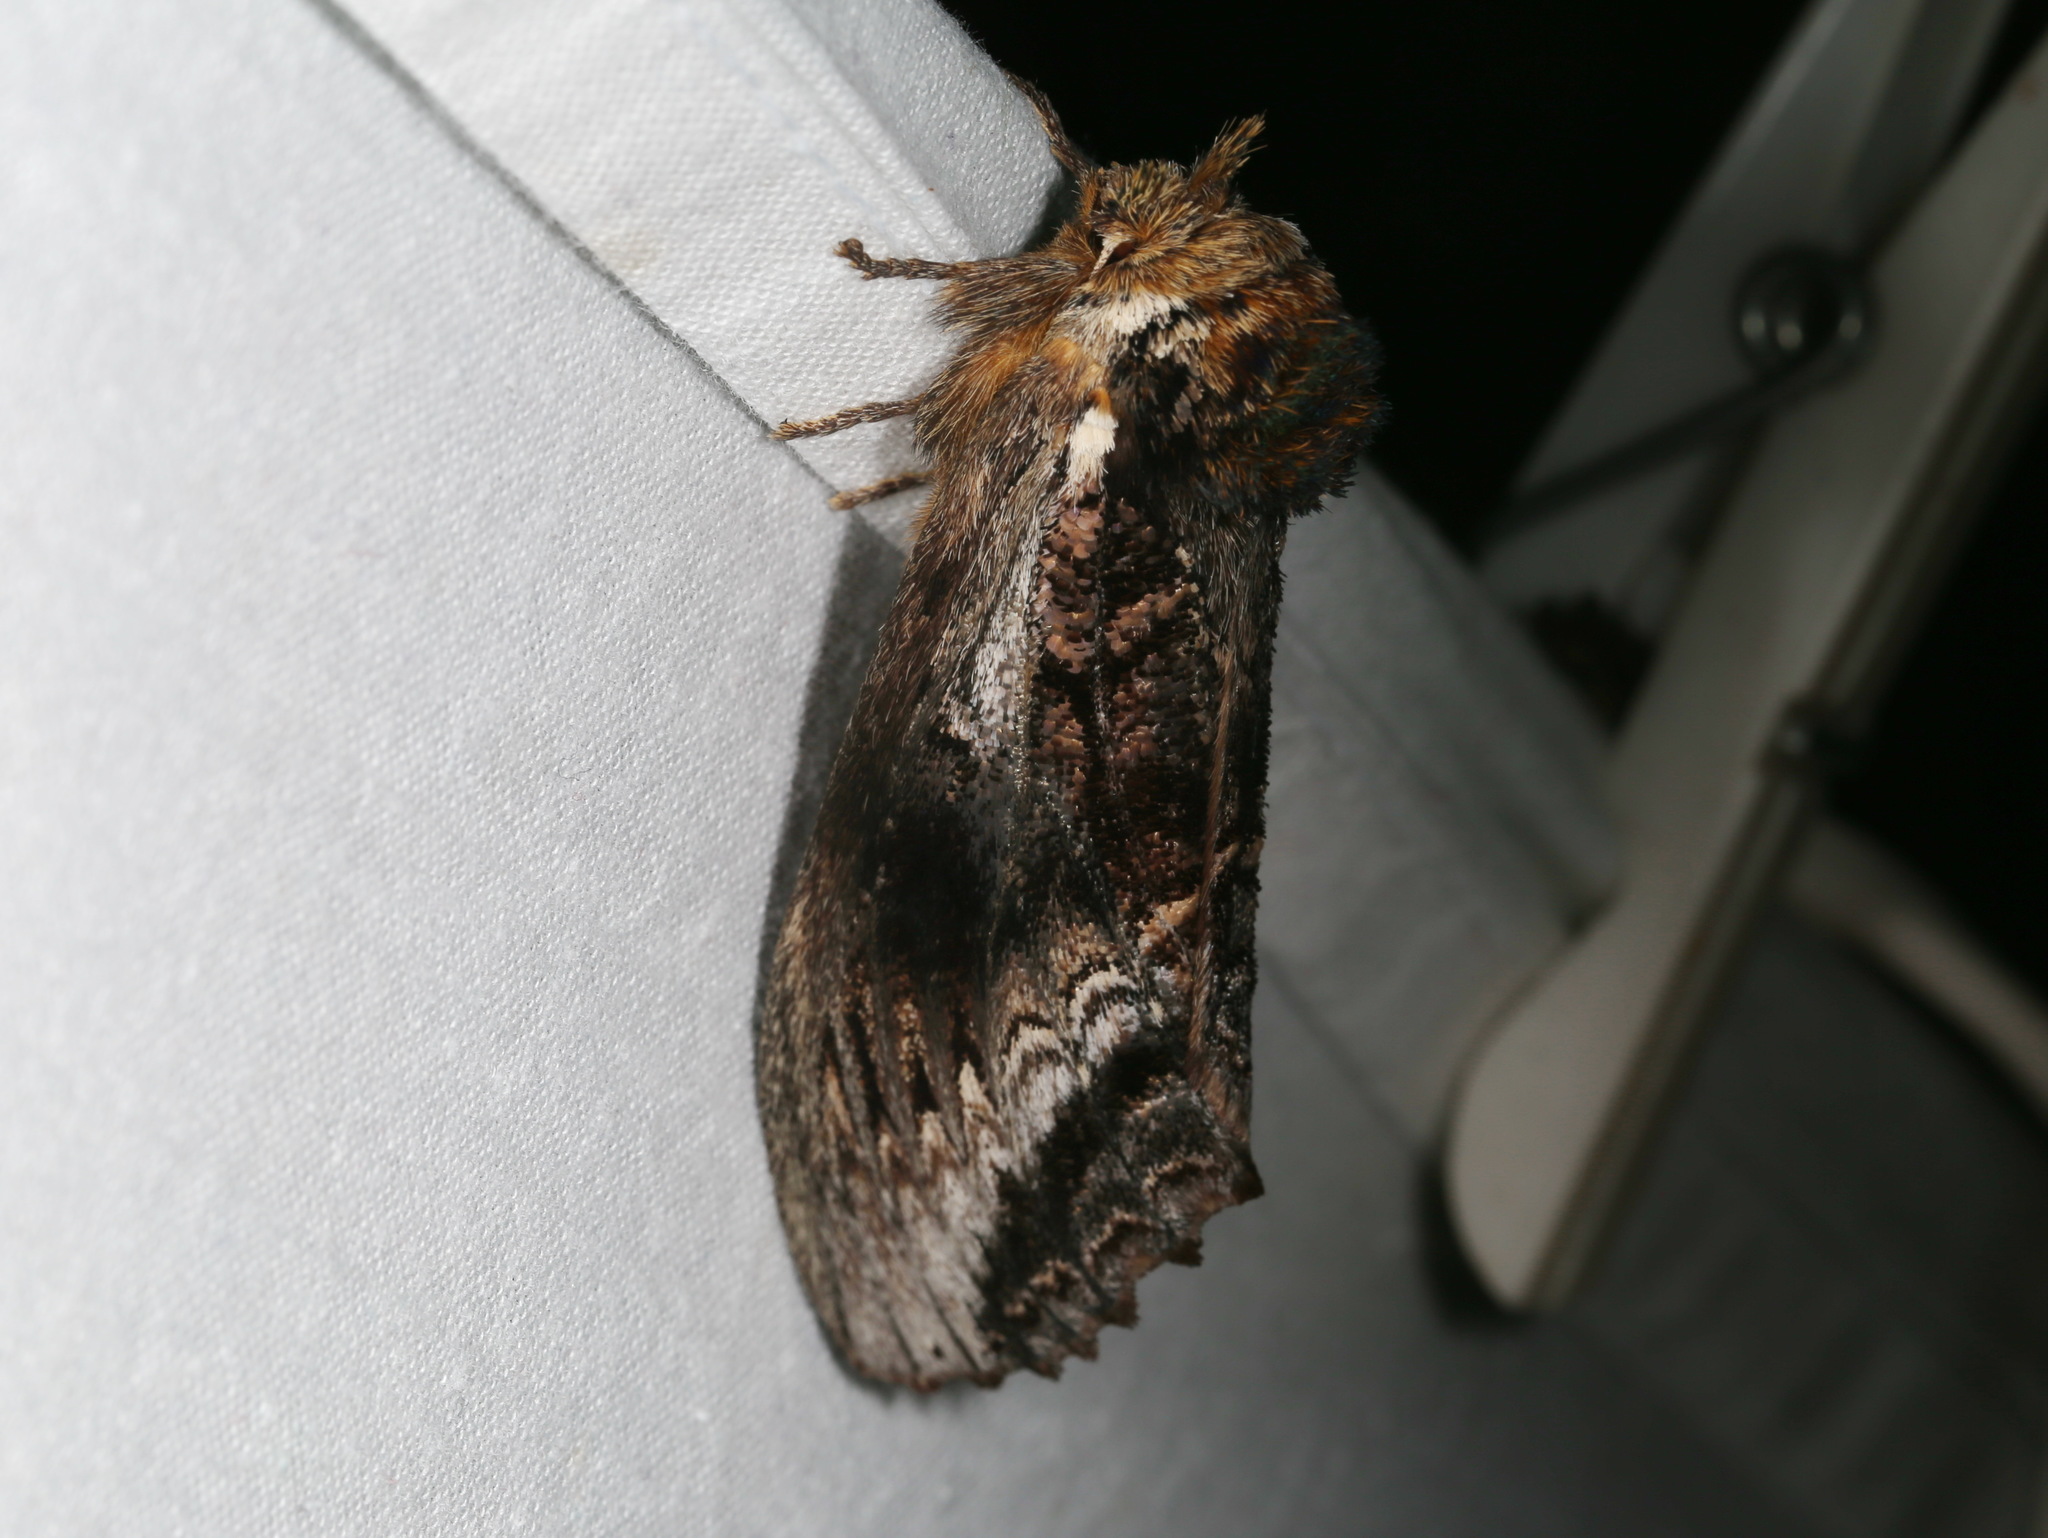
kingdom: Animalia
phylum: Arthropoda
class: Insecta
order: Lepidoptera
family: Notodontidae
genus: Hylaeora
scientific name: Hylaeora eucalypti
